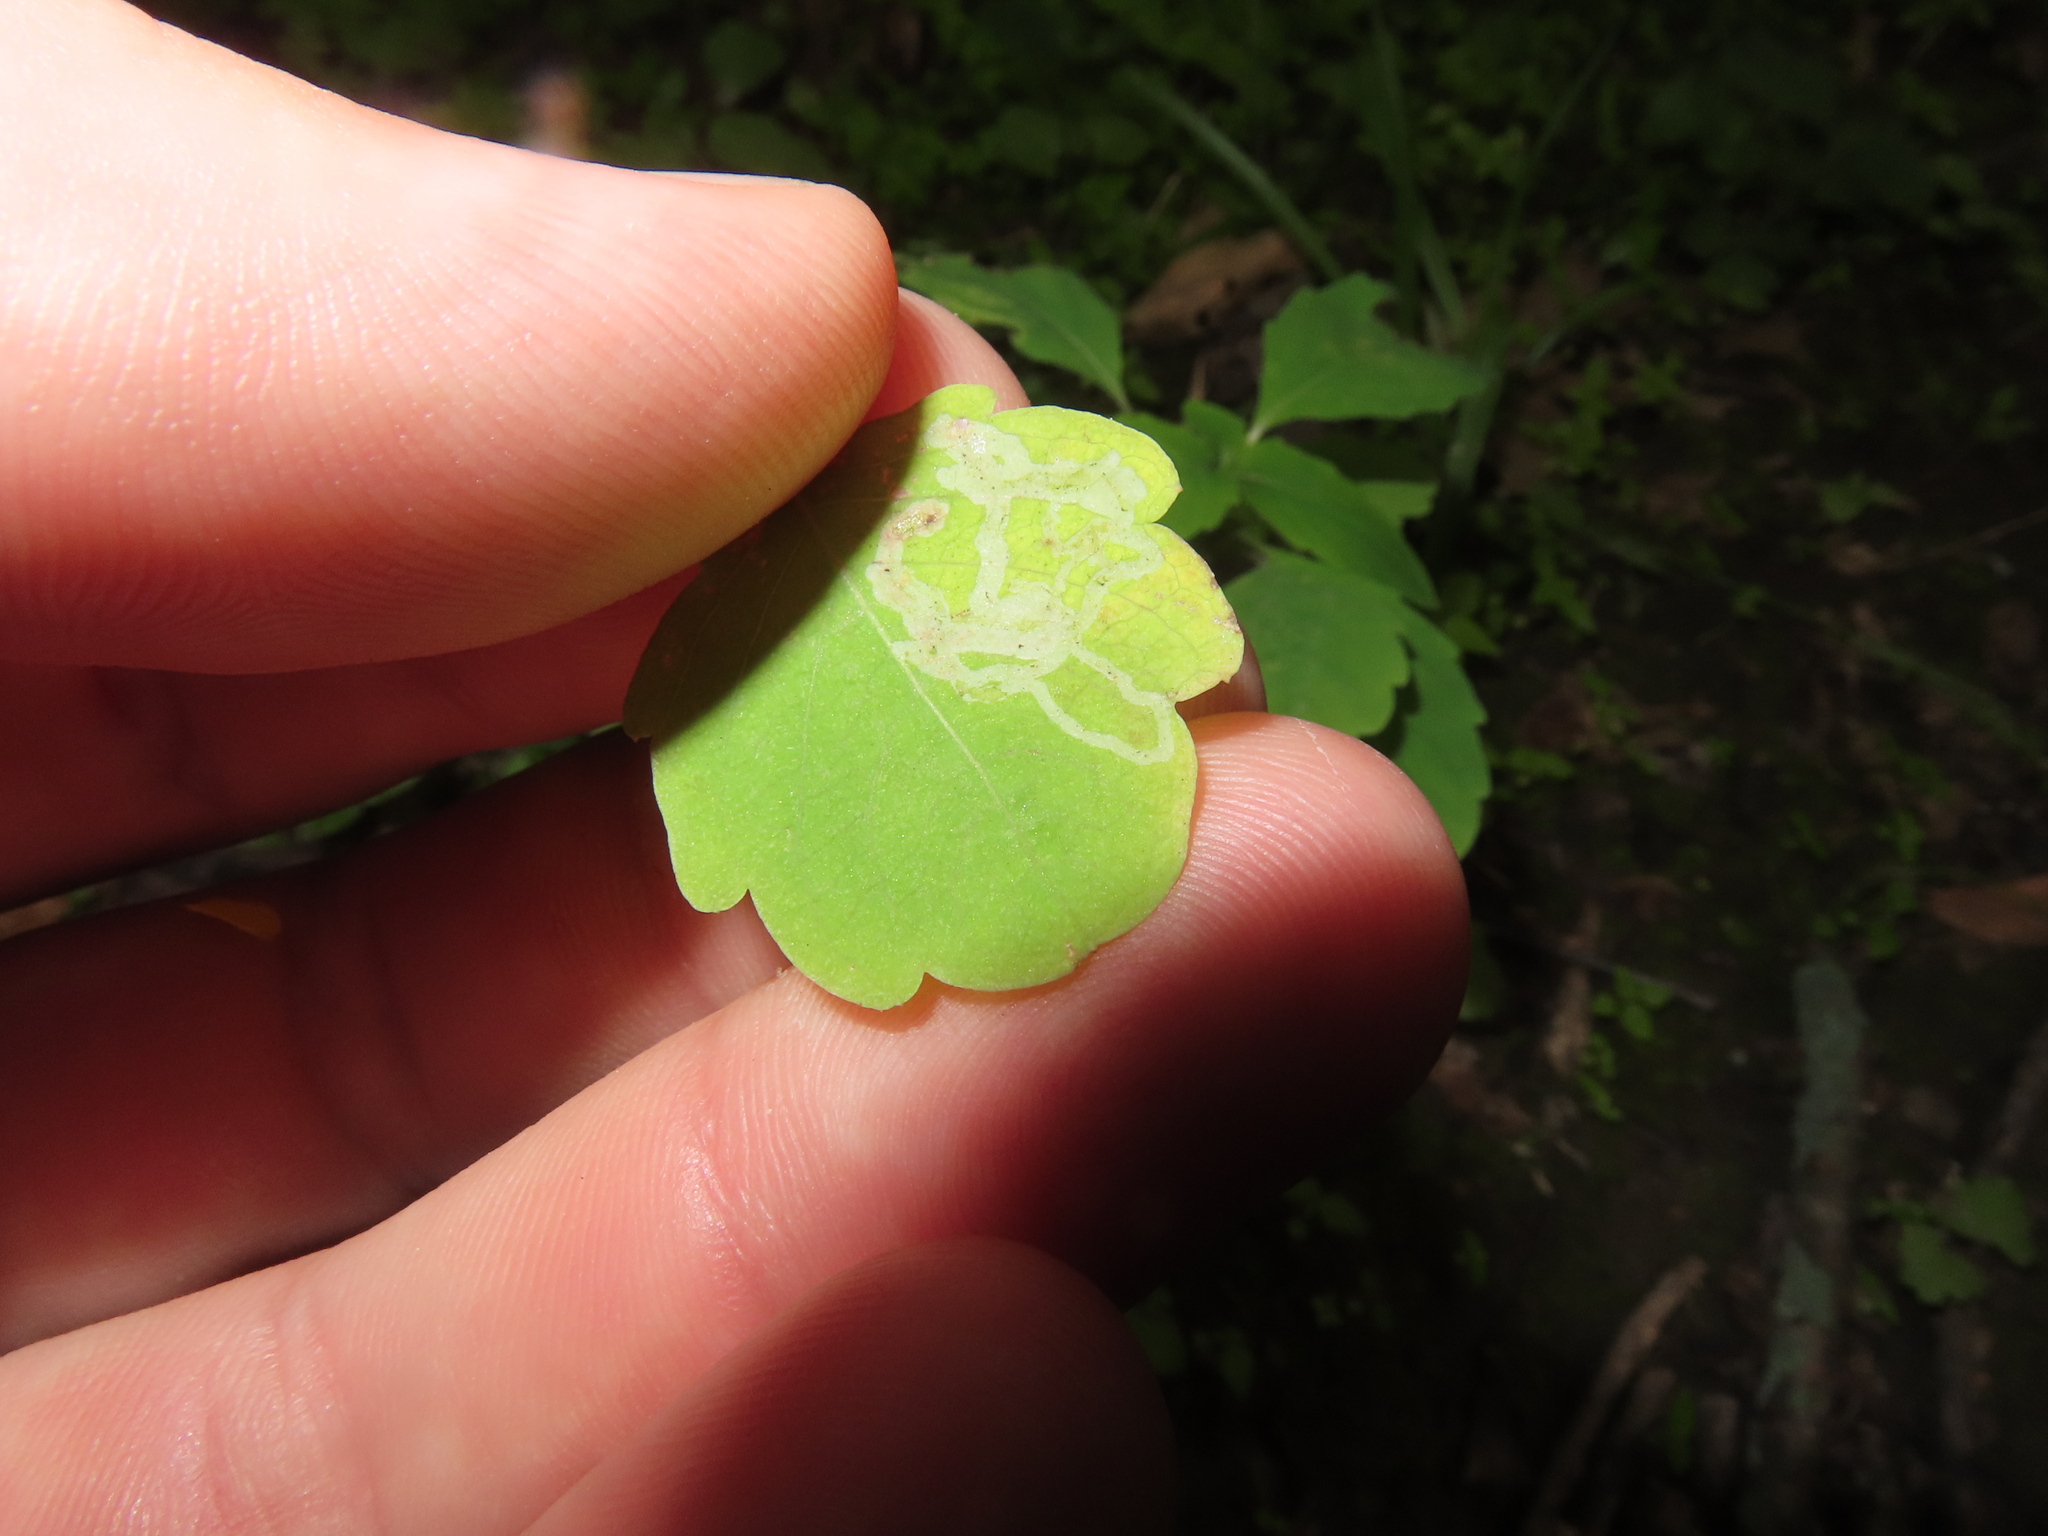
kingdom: Animalia
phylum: Arthropoda
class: Insecta
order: Diptera
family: Agromyzidae
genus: Phytoliriomyza
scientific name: Phytoliriomyza melampyga
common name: Jewelweed leaf-miner fly
